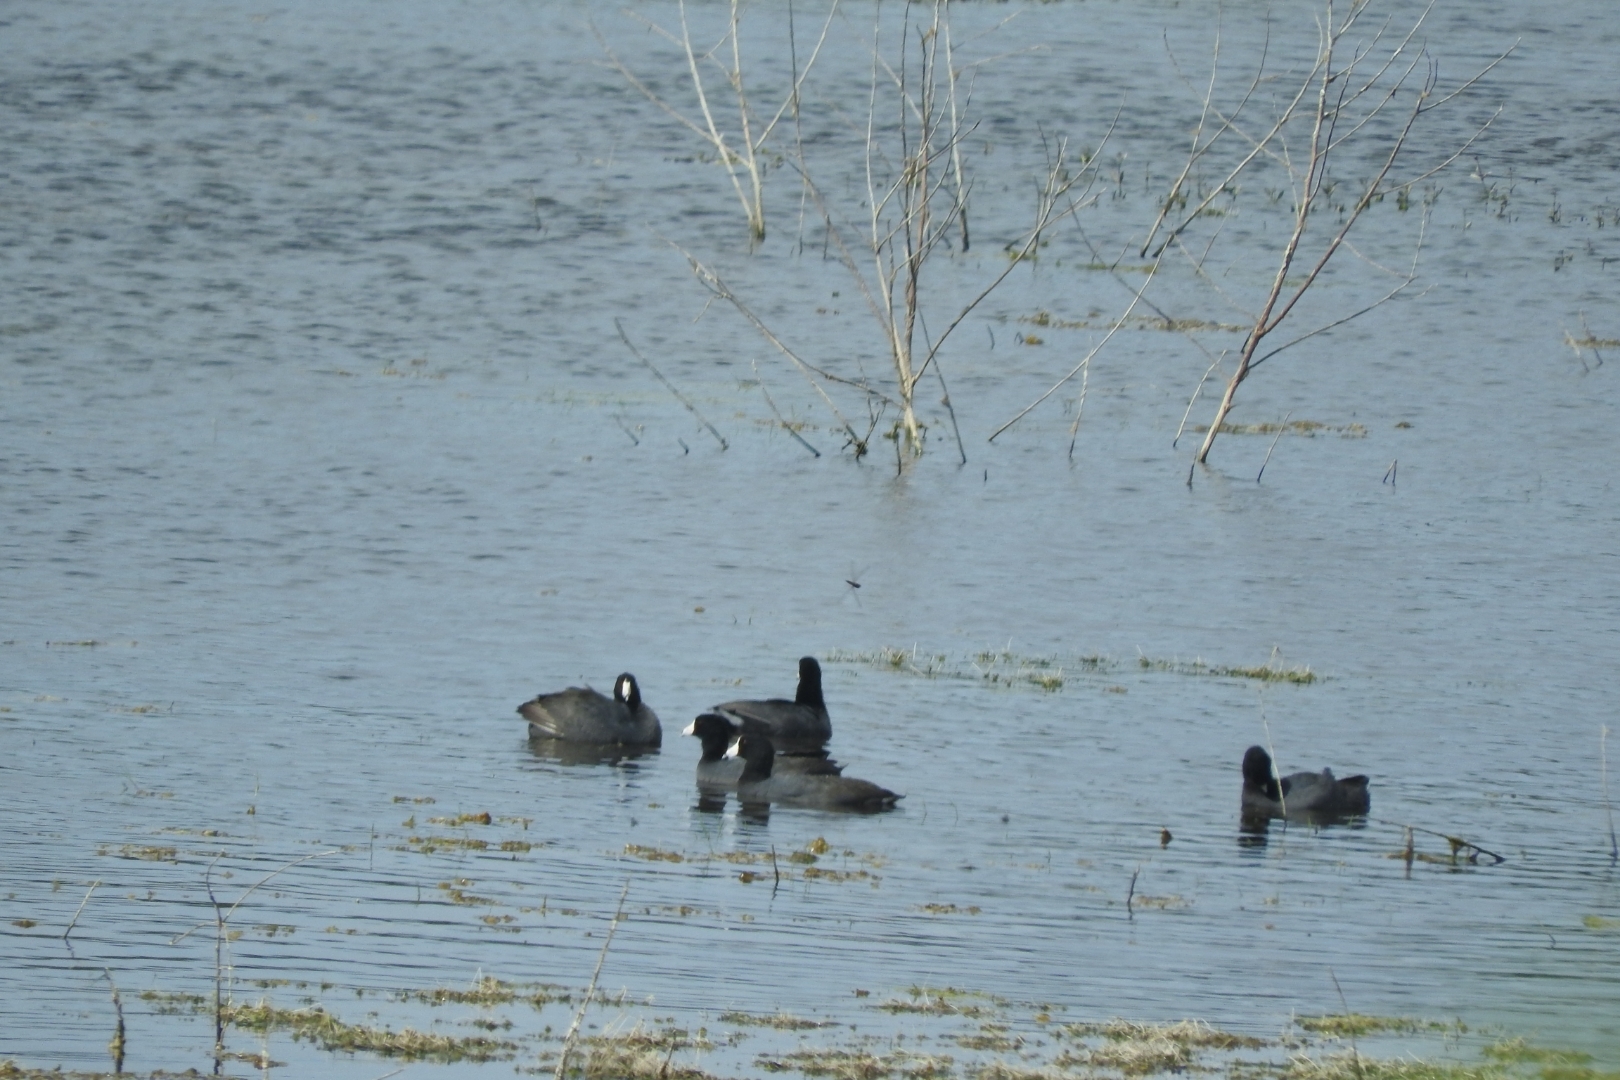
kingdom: Animalia
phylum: Chordata
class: Aves
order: Gruiformes
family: Rallidae
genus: Fulica
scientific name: Fulica americana
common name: American coot
